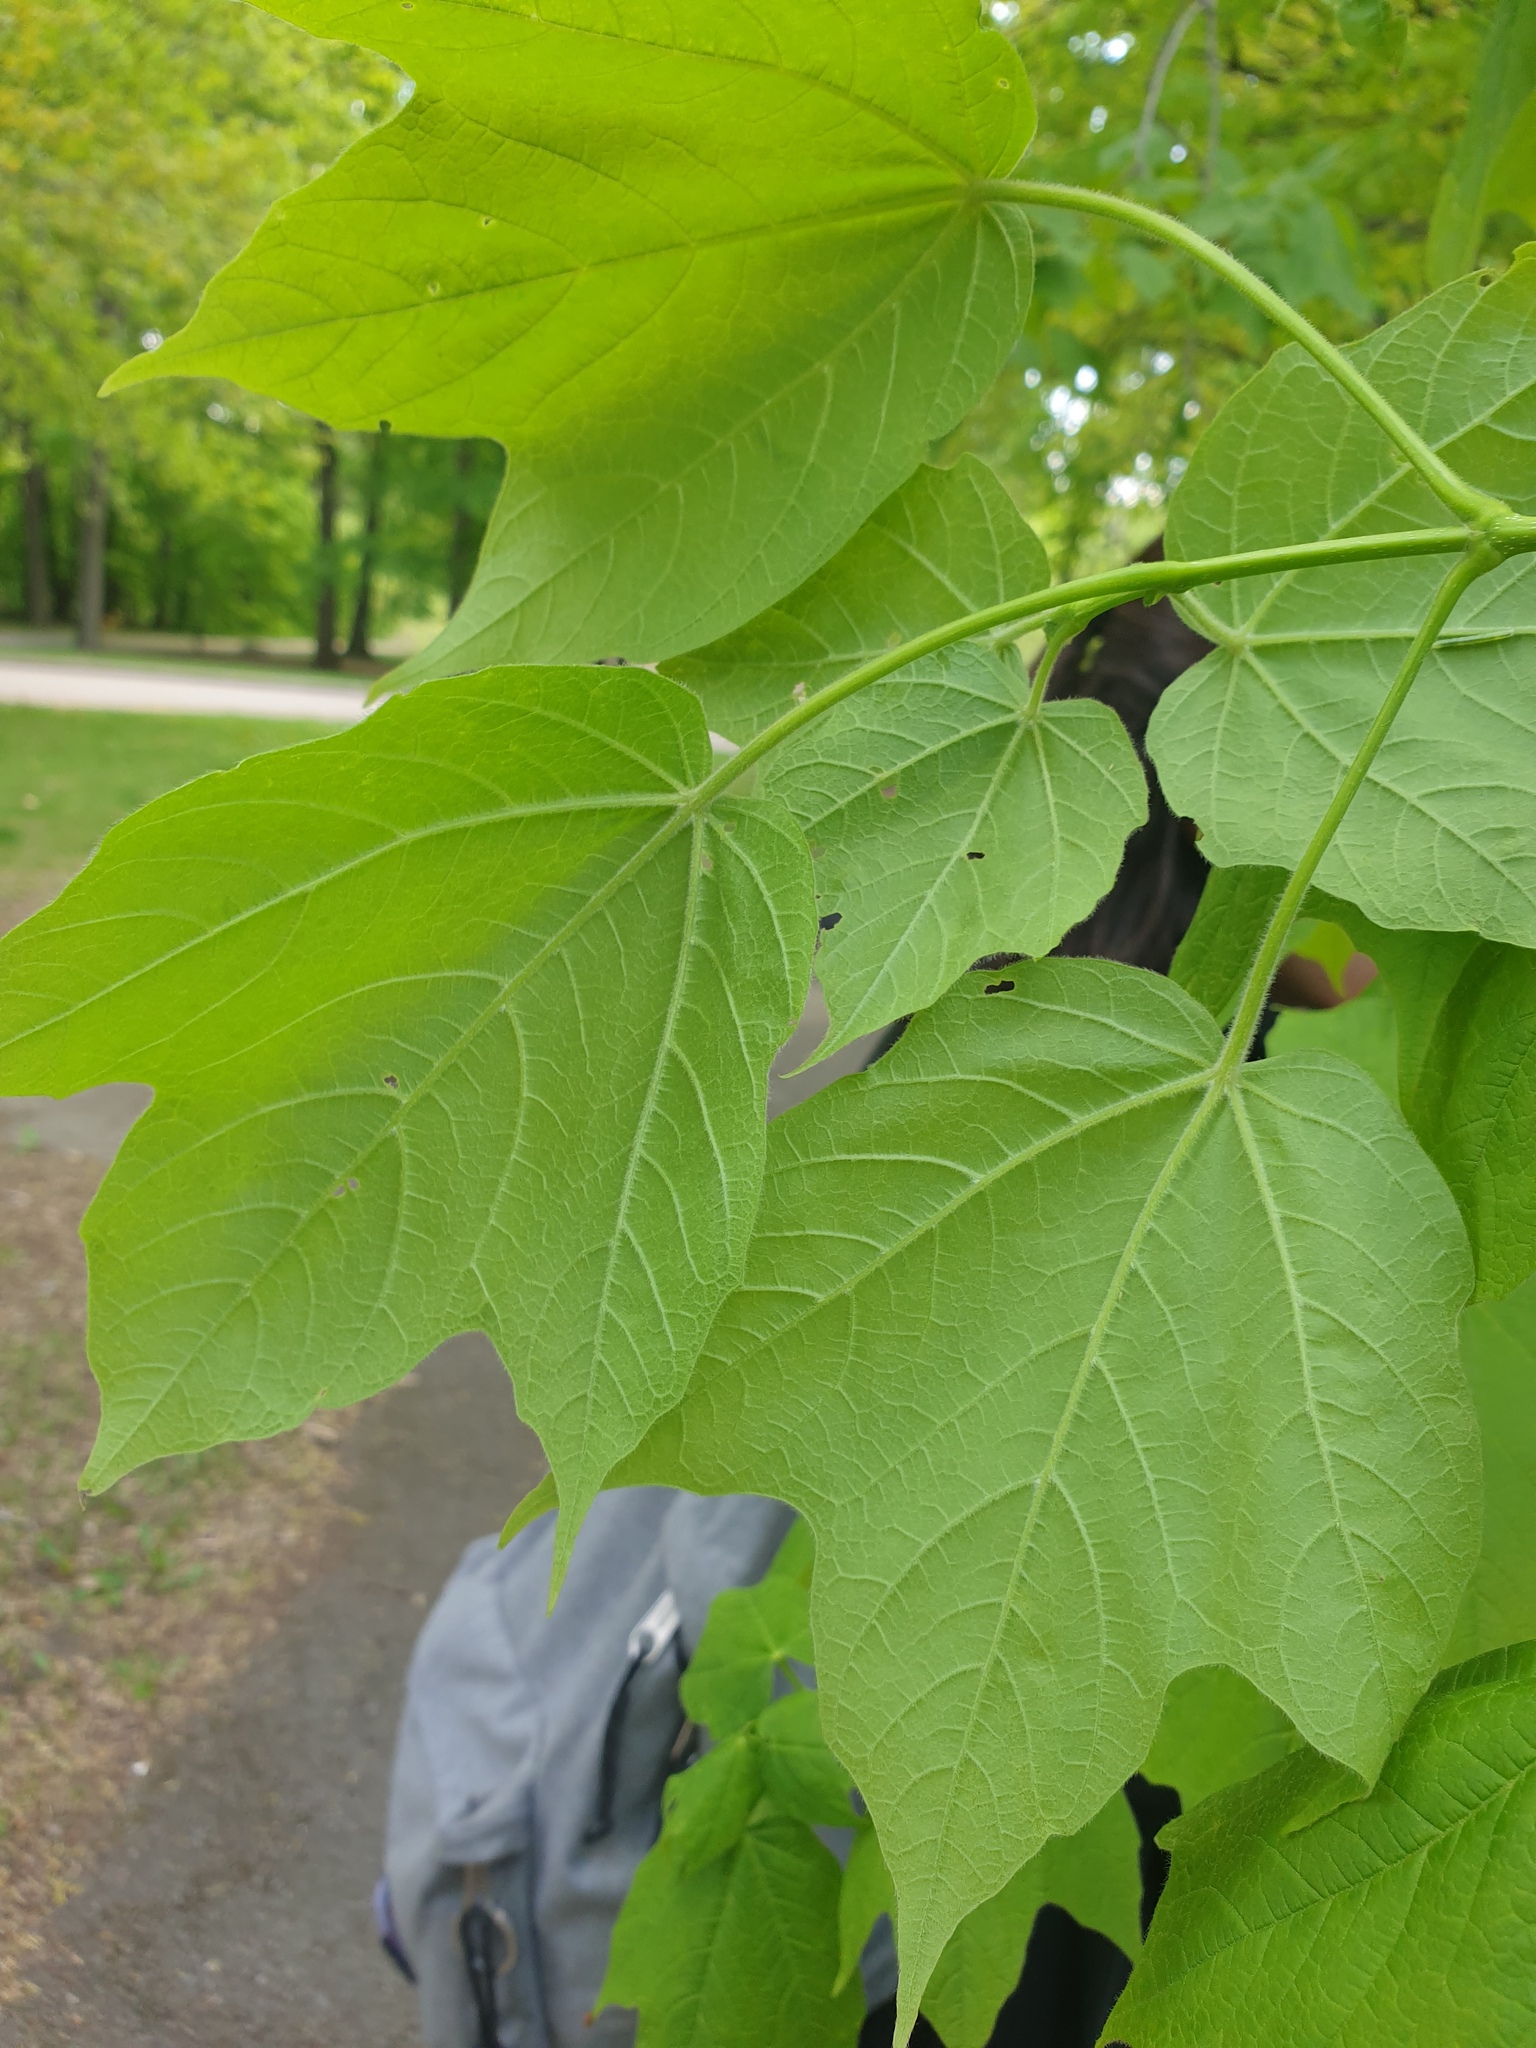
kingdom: Plantae
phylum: Tracheophyta
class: Magnoliopsida
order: Sapindales
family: Sapindaceae
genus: Acer
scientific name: Acer nigrum
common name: Black maple
